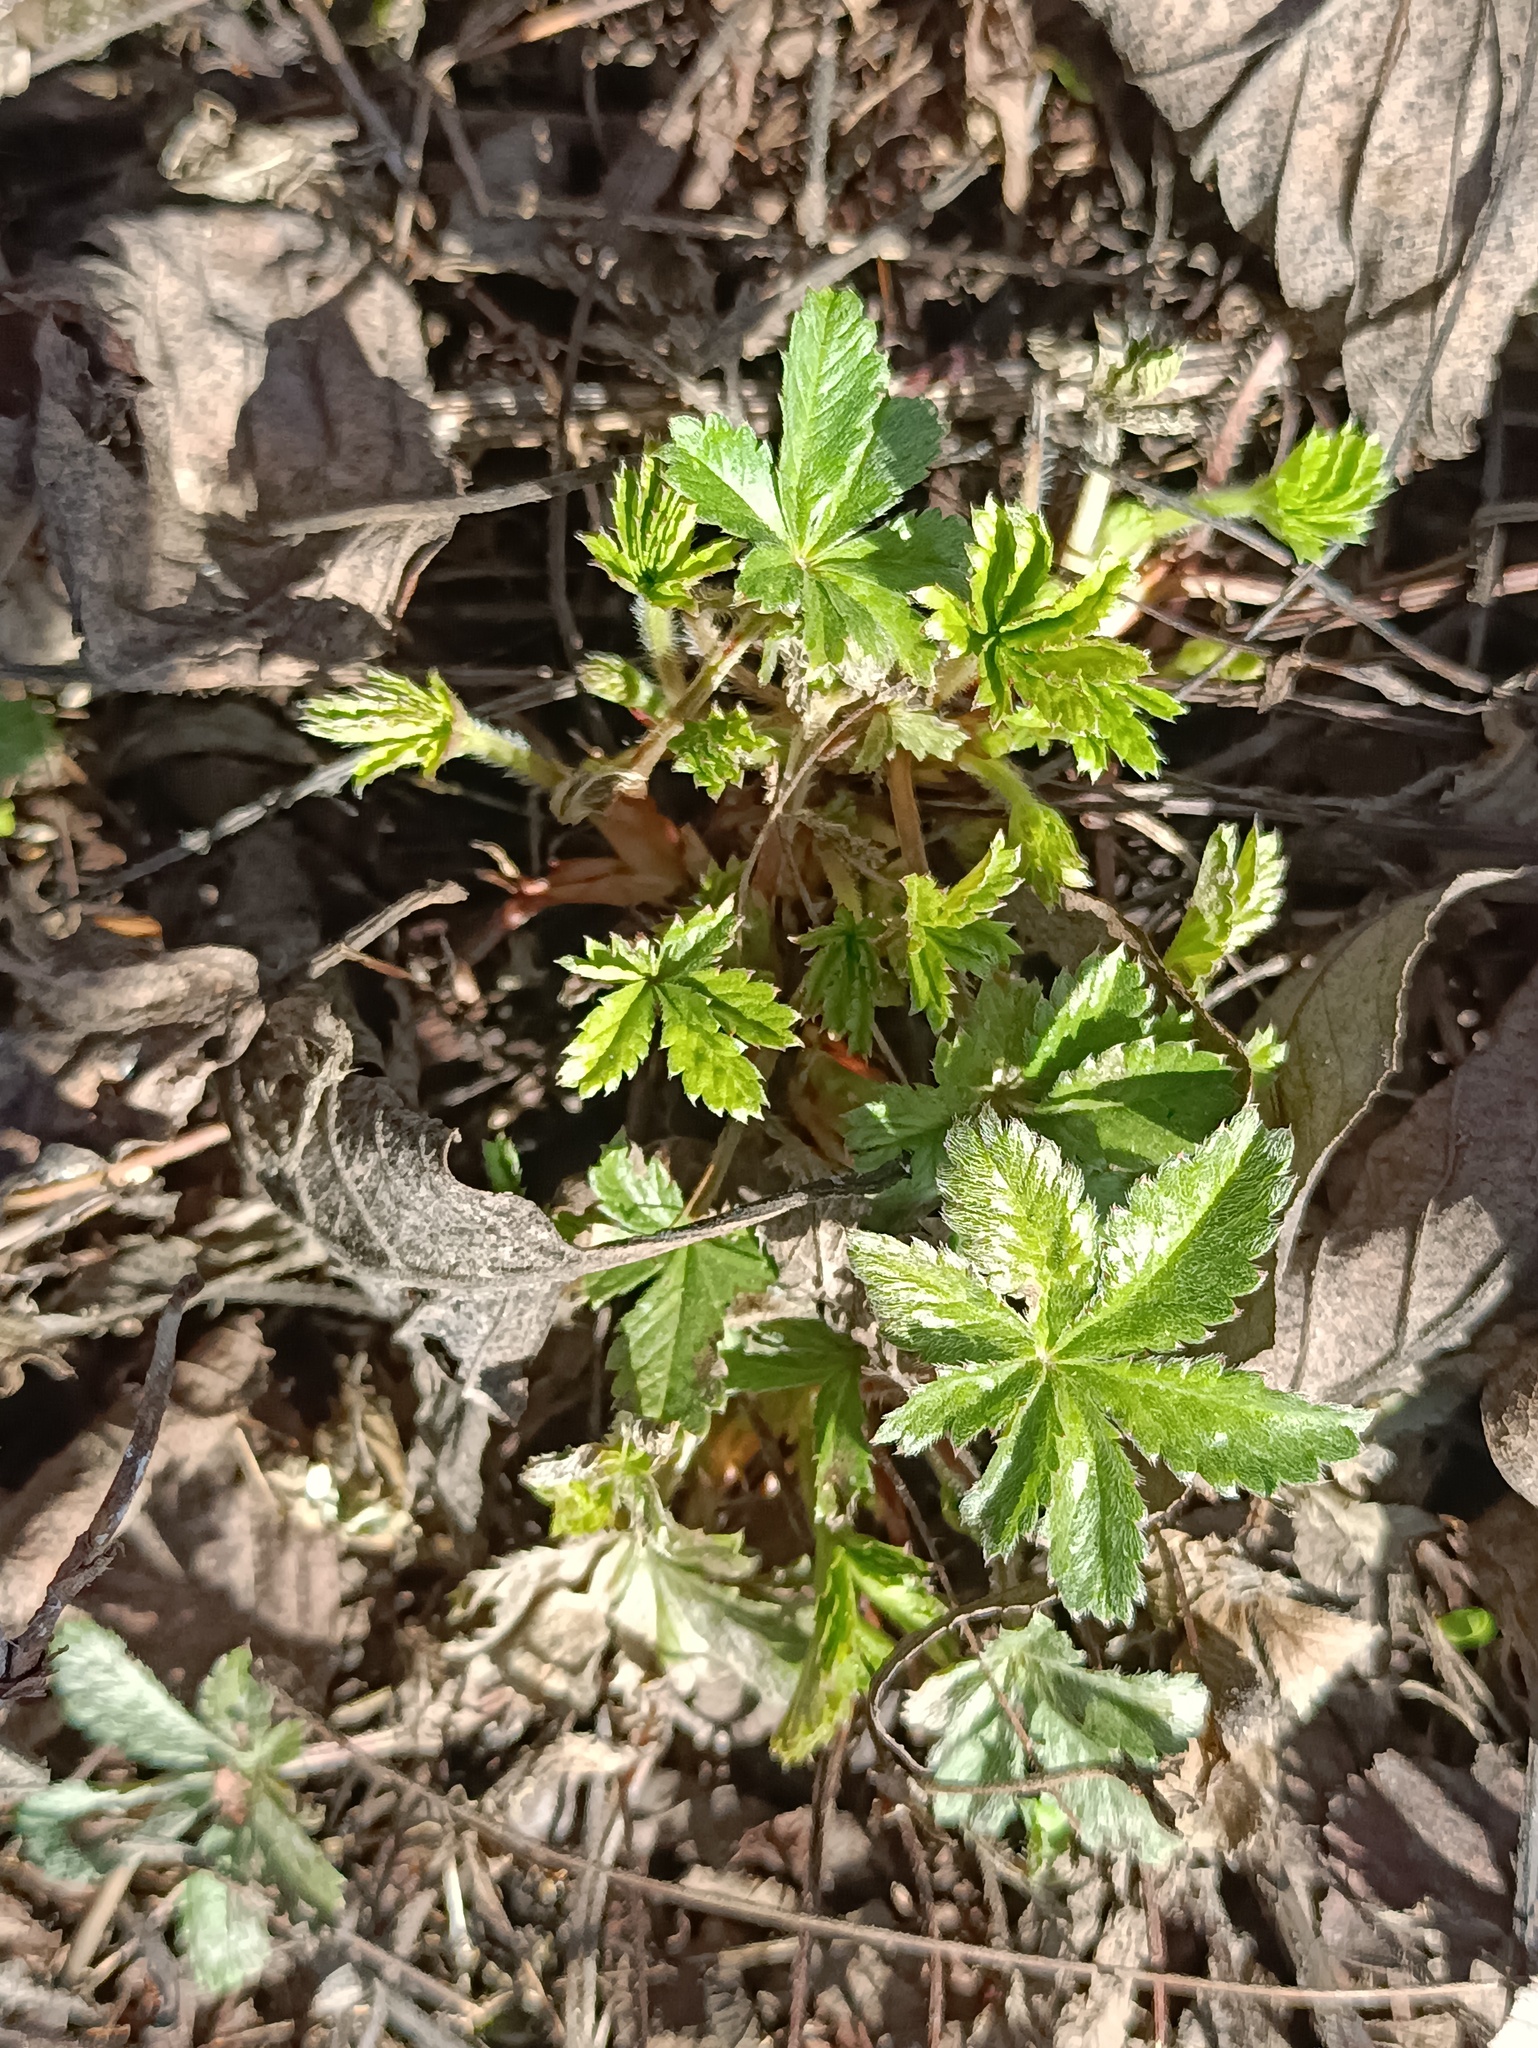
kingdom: Plantae
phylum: Tracheophyta
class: Magnoliopsida
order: Rosales
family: Rosaceae
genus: Potentilla
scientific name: Potentilla argentea
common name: Hoary cinquefoil
